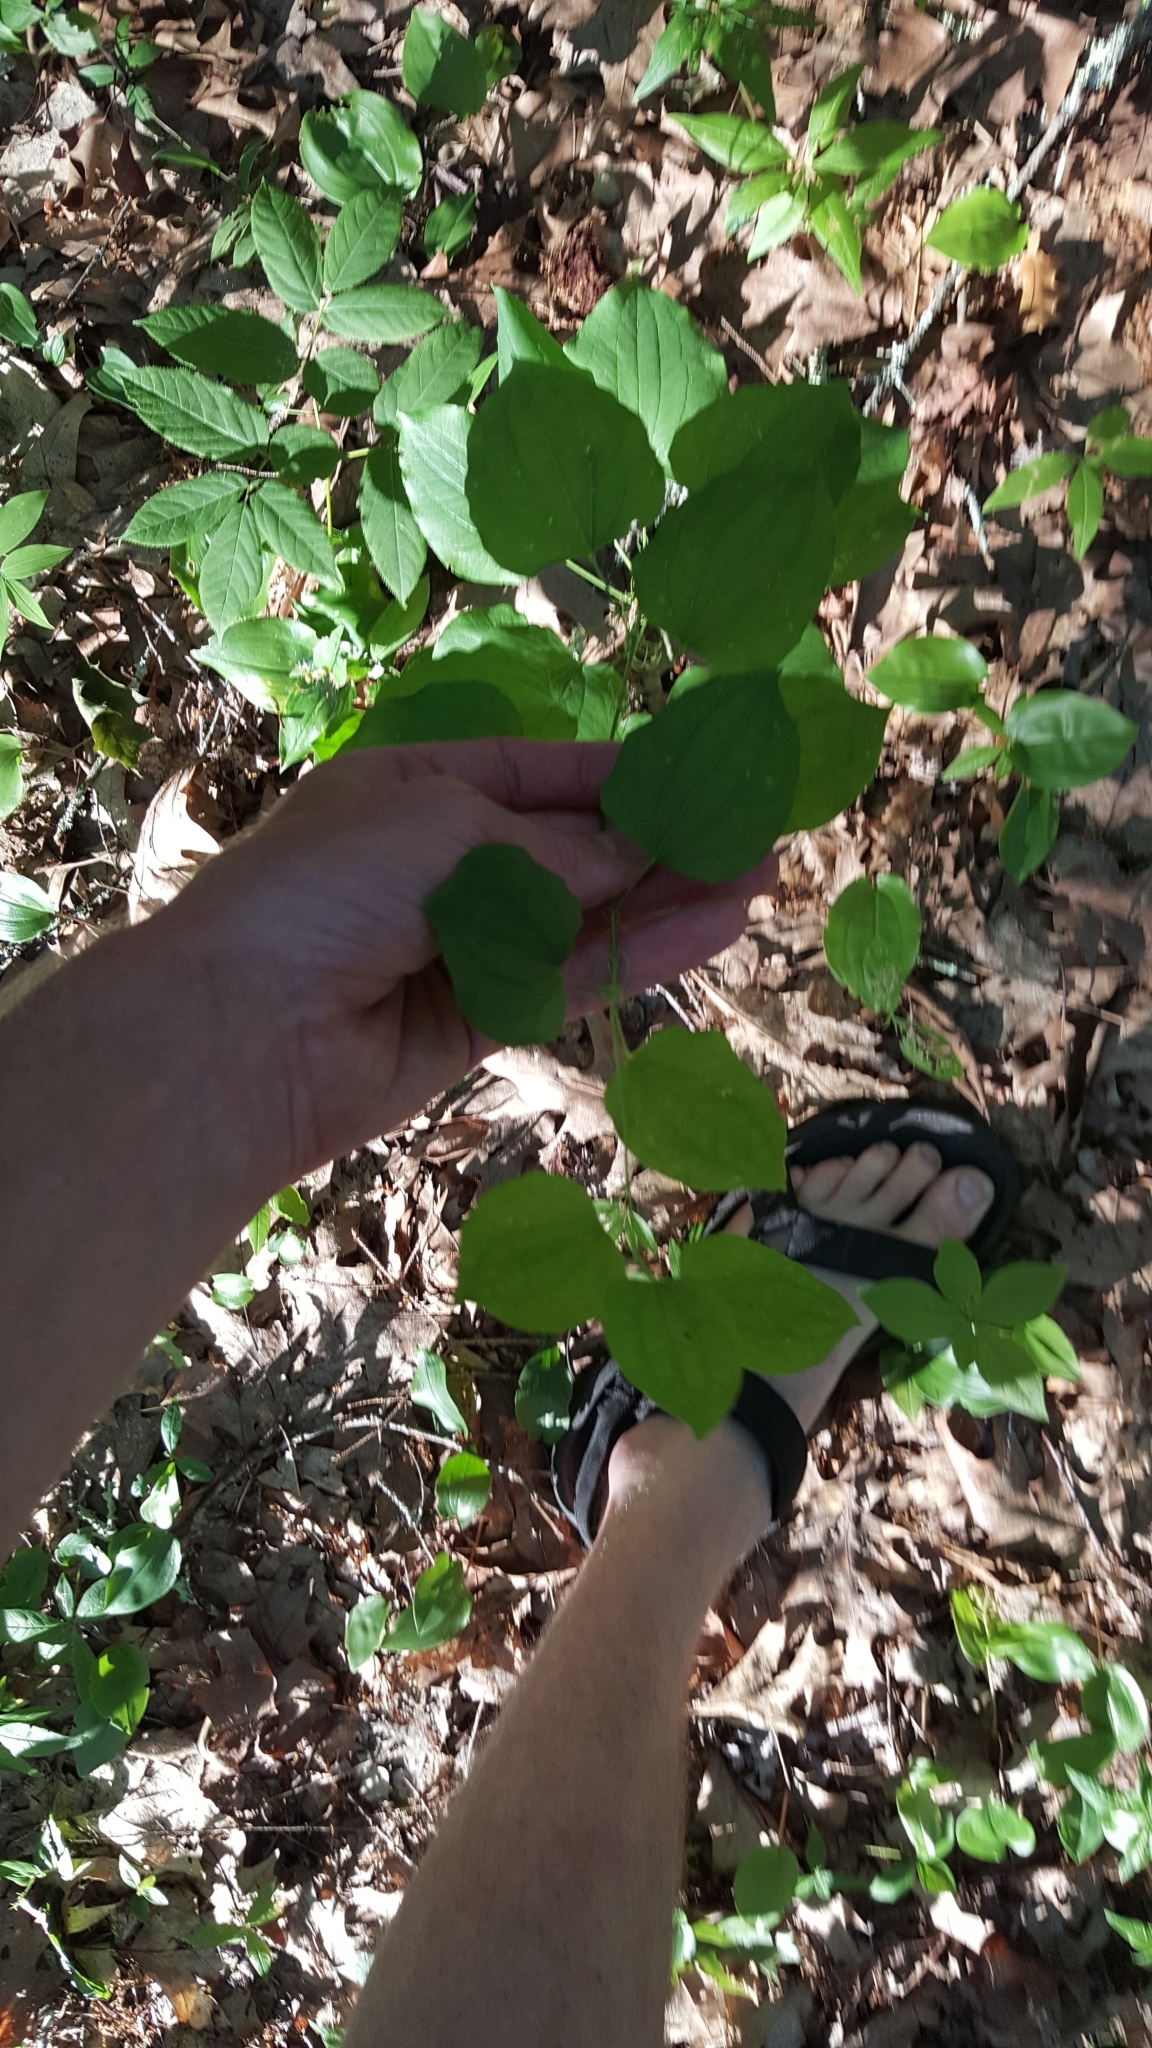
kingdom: Plantae
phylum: Tracheophyta
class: Liliopsida
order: Liliales
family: Smilacaceae
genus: Smilax
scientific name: Smilax herbacea
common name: Jacob's-ladder
